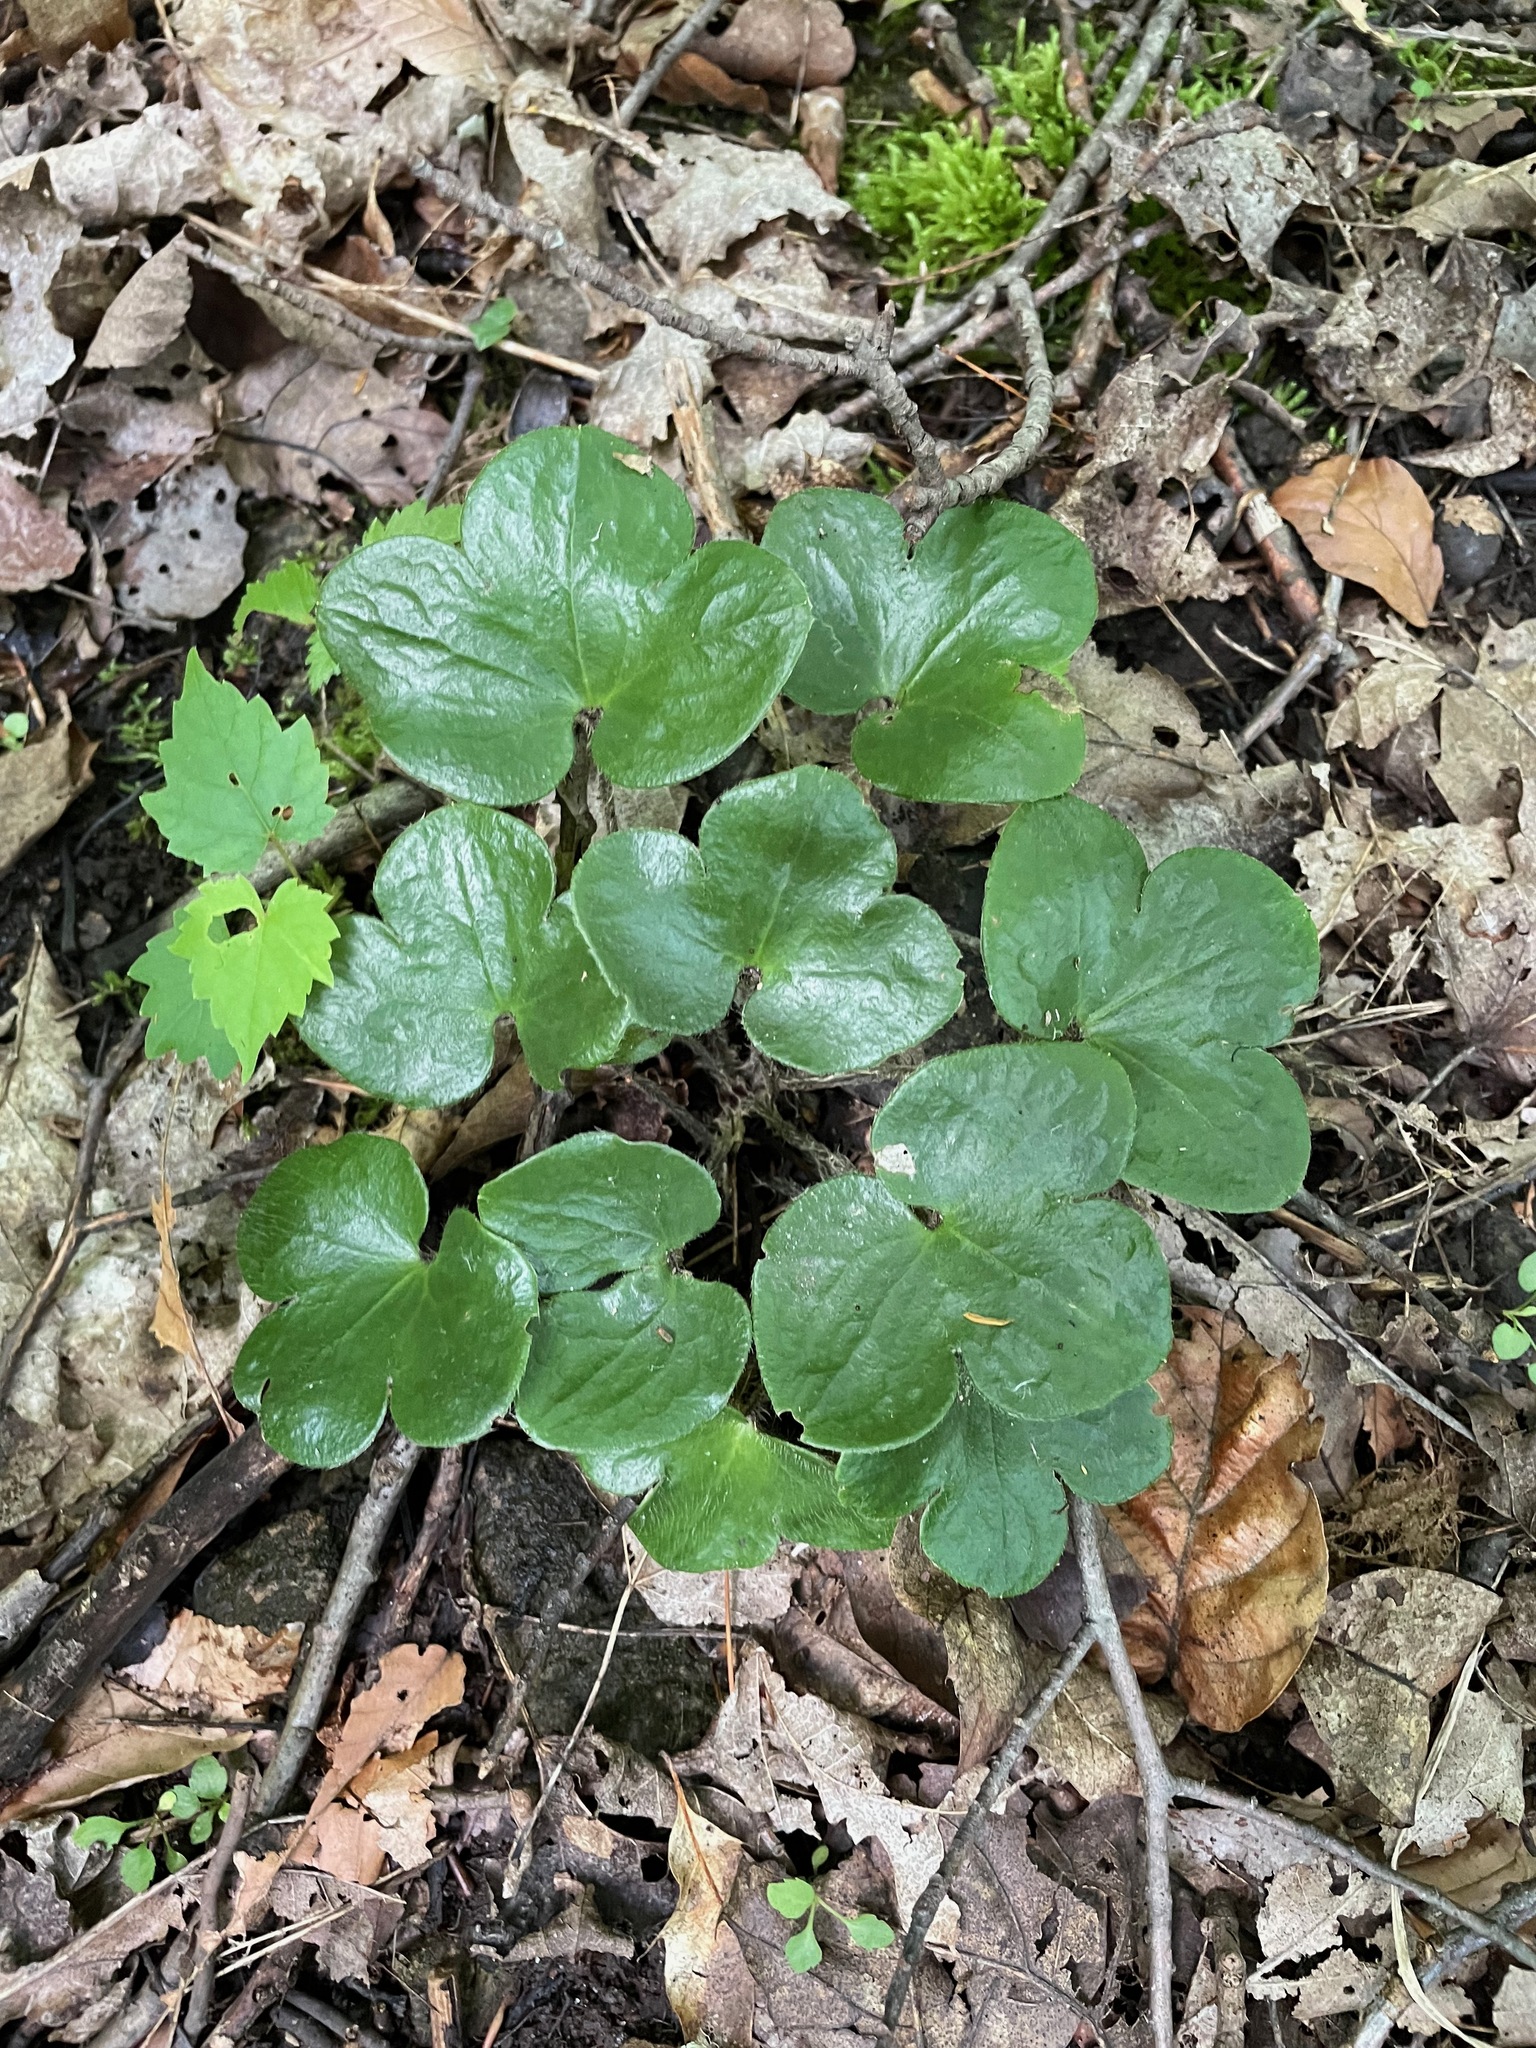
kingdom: Plantae
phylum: Tracheophyta
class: Magnoliopsida
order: Ranunculales
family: Ranunculaceae
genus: Hepatica
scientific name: Hepatica americana
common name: American hepatica
